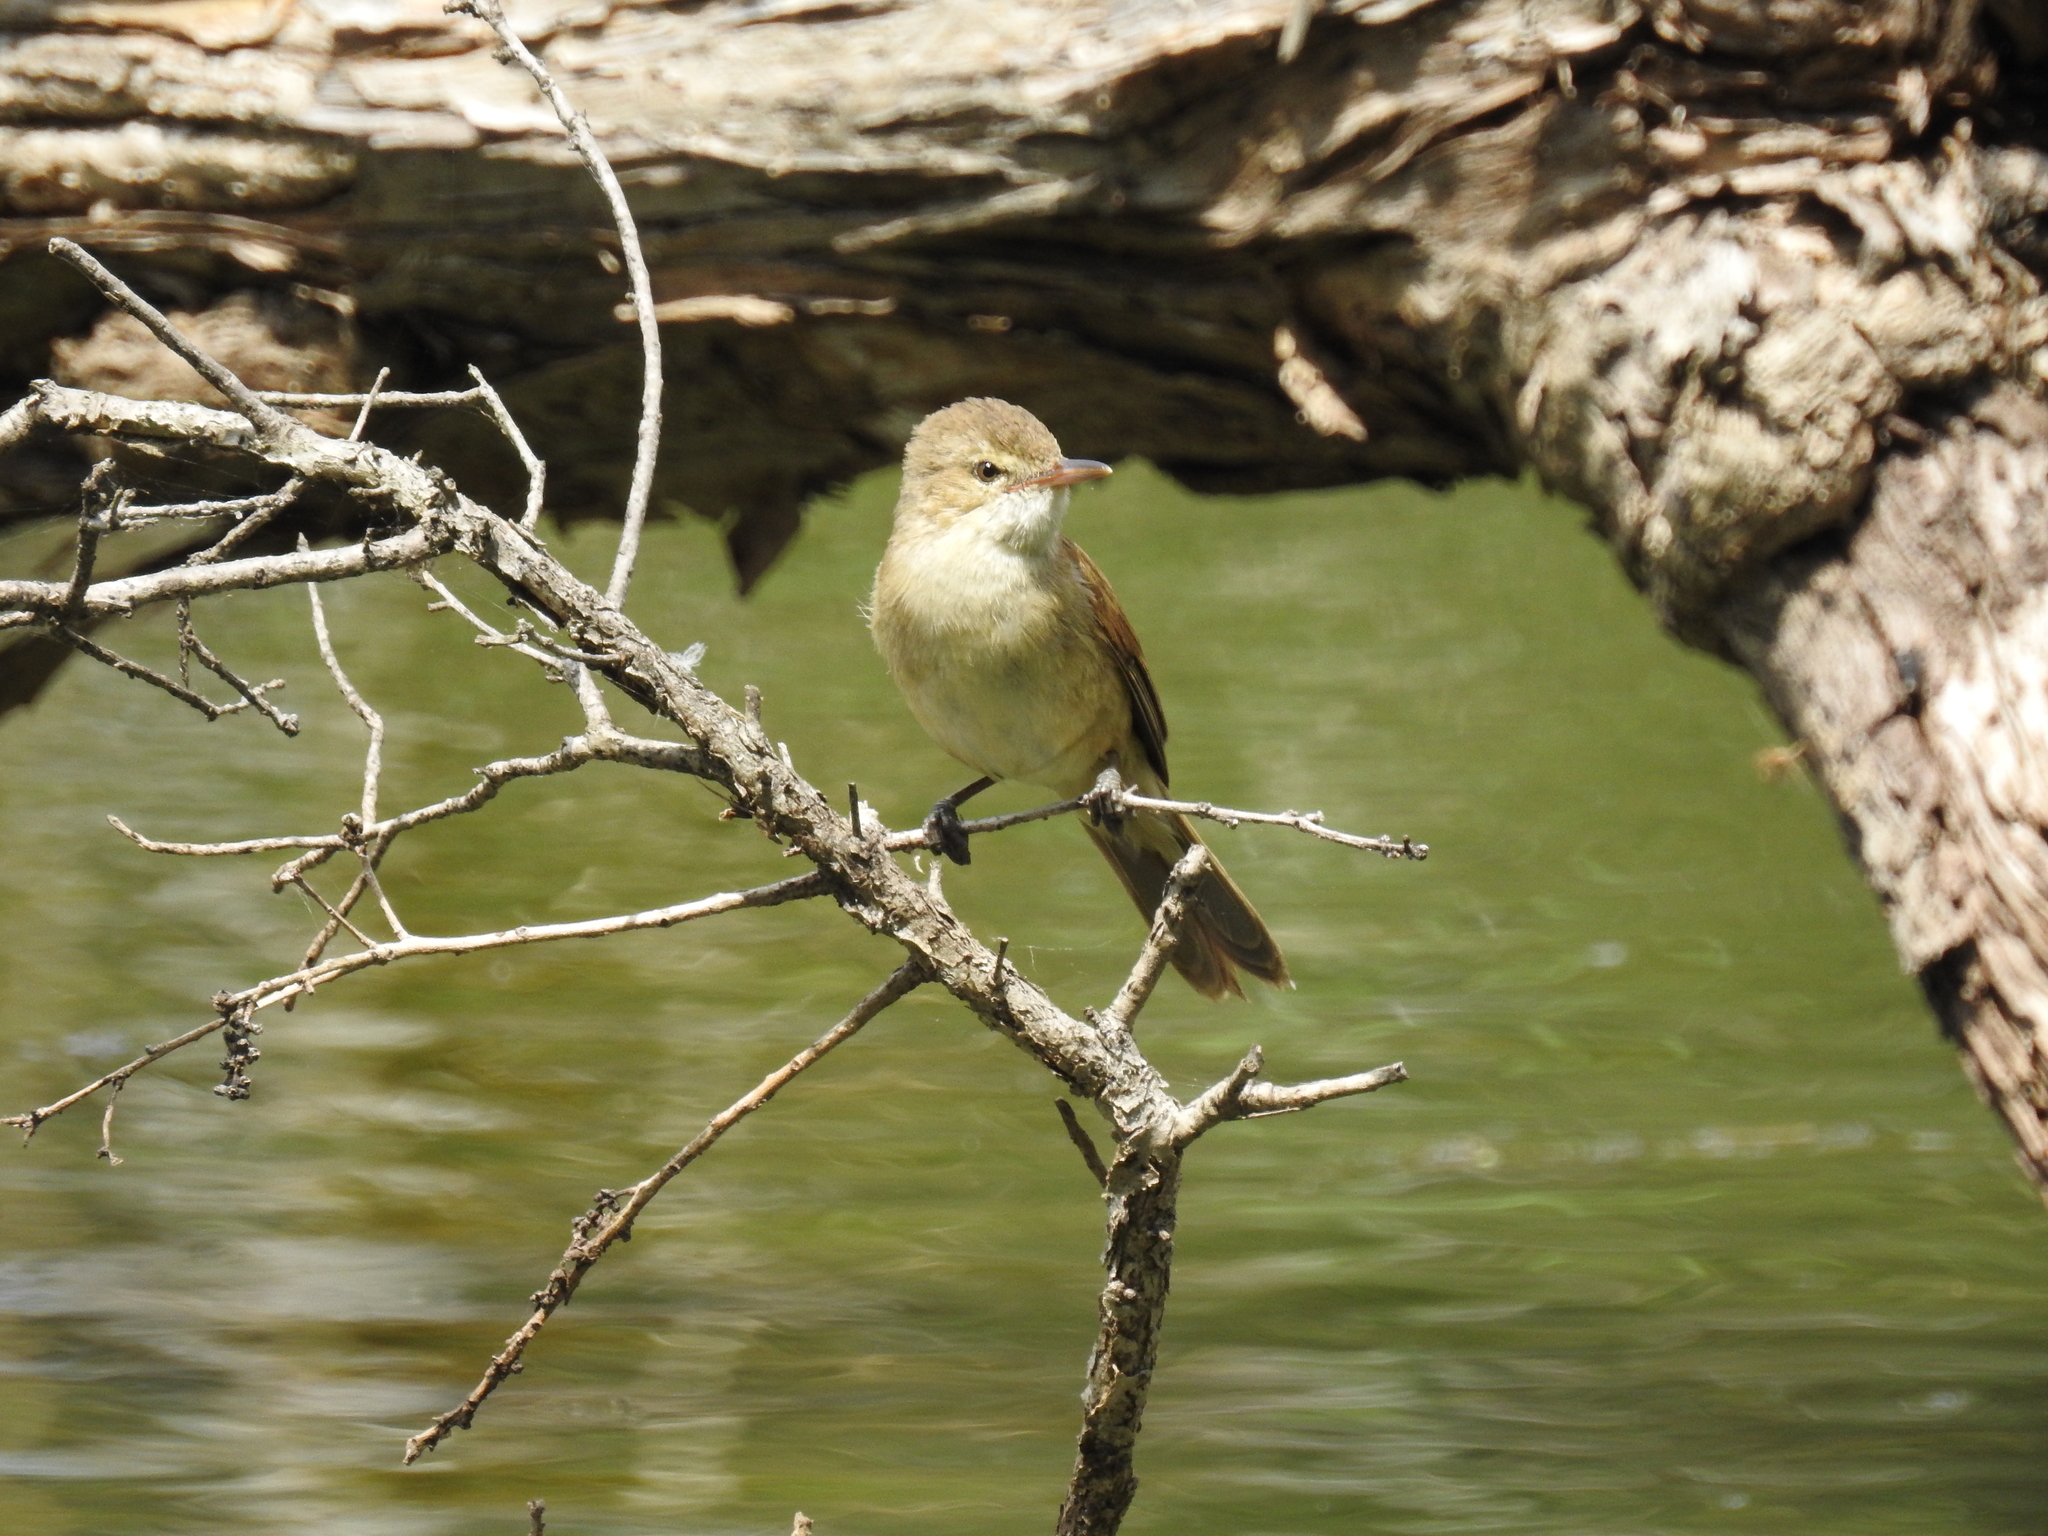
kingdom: Animalia
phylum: Chordata
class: Aves
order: Passeriformes
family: Acrocephalidae
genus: Acrocephalus
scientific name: Acrocephalus australis
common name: Australian reed warbler
